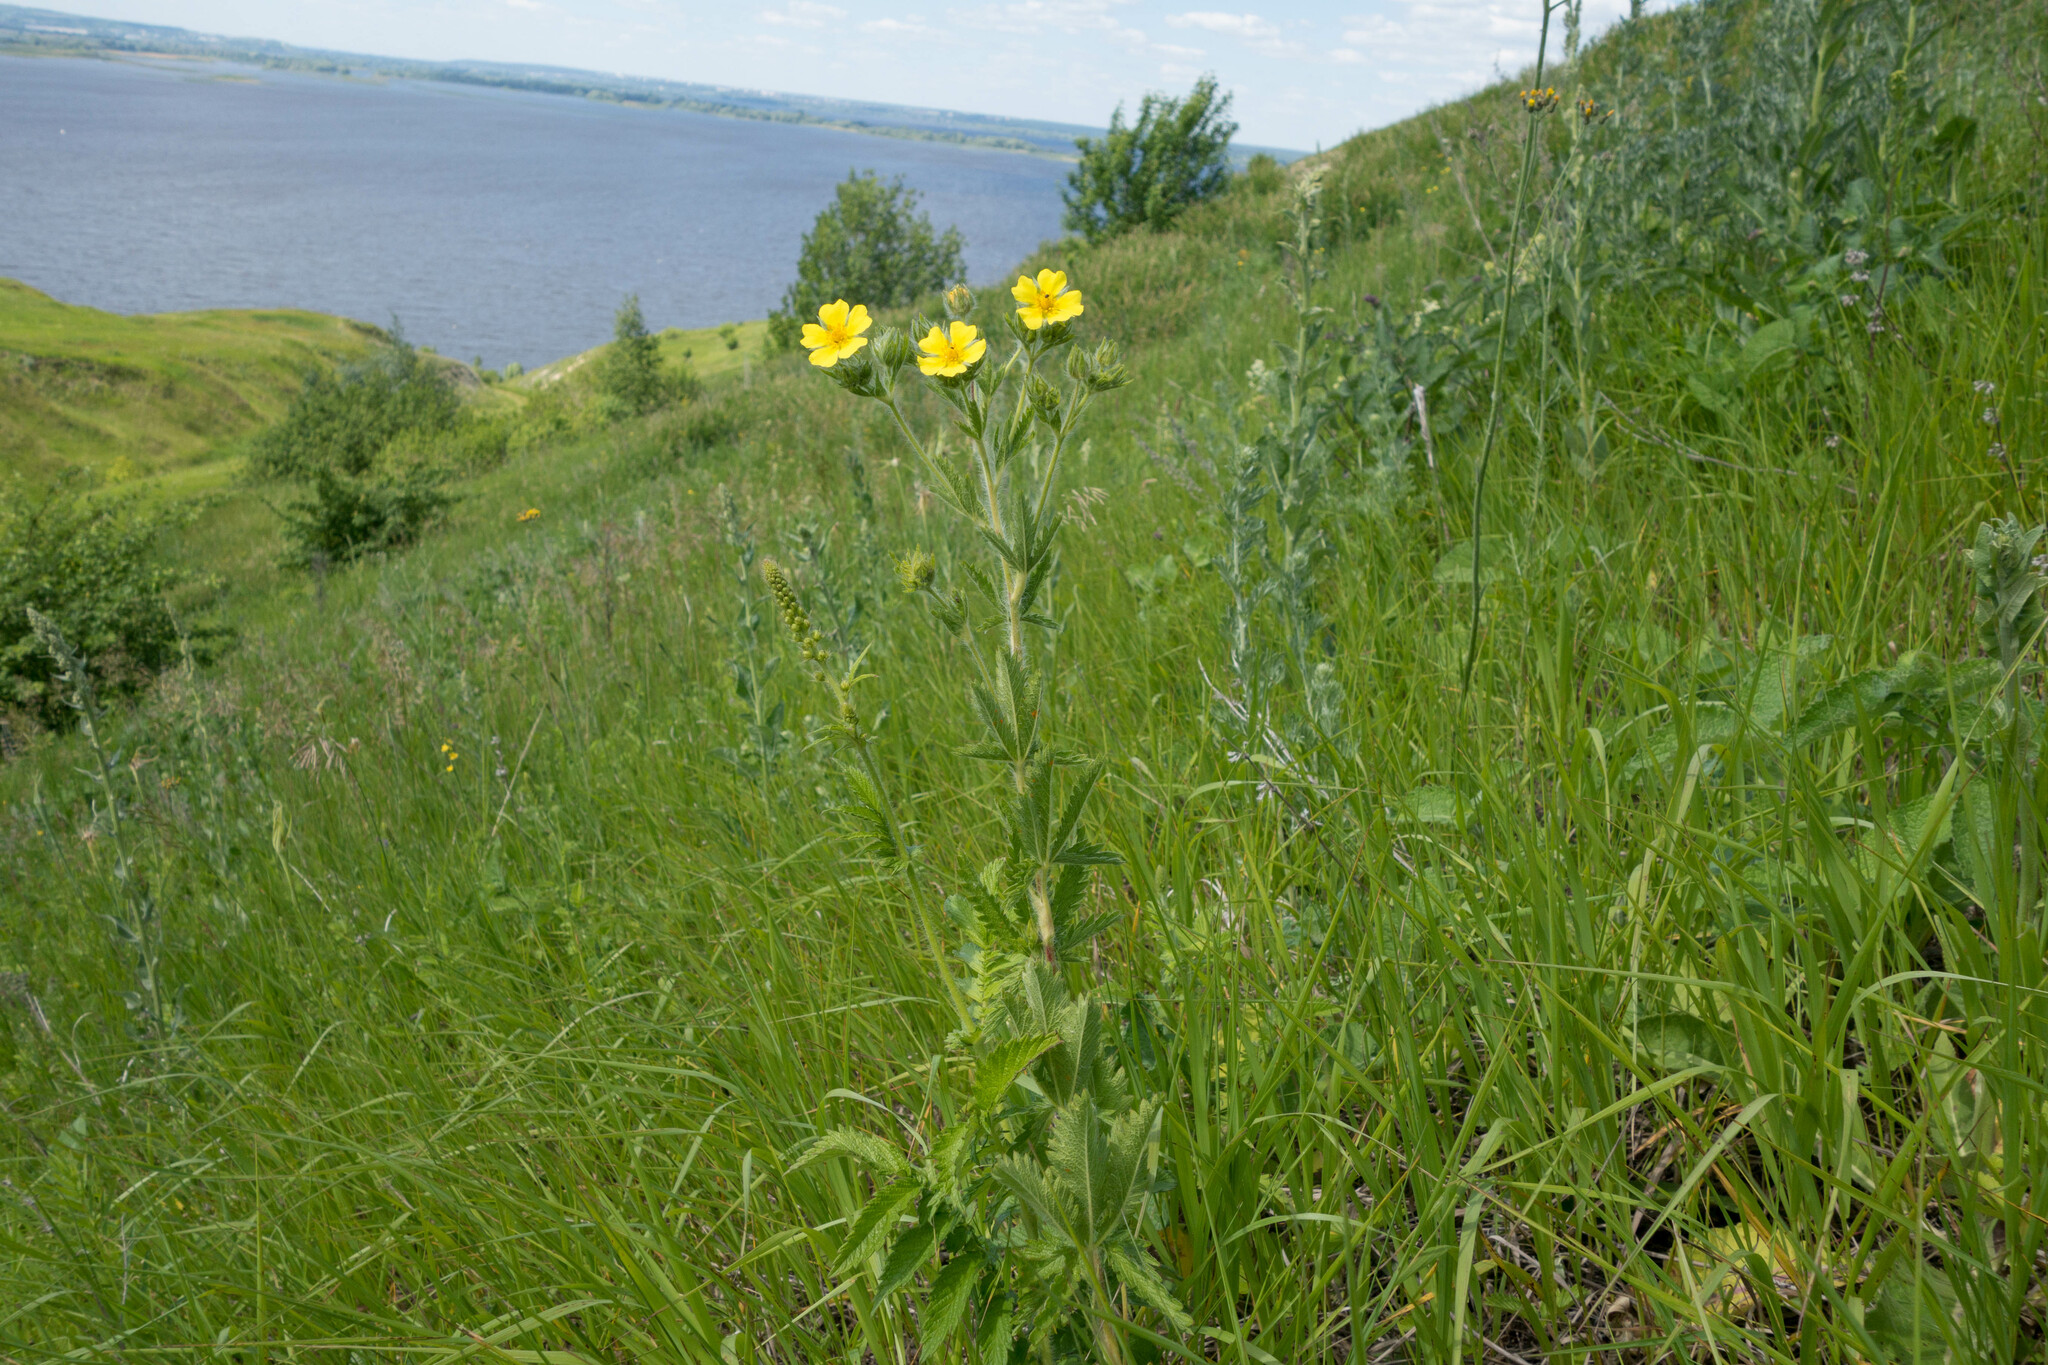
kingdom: Plantae
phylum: Tracheophyta
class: Magnoliopsida
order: Rosales
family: Rosaceae
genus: Potentilla
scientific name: Potentilla recta
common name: Sulphur cinquefoil
